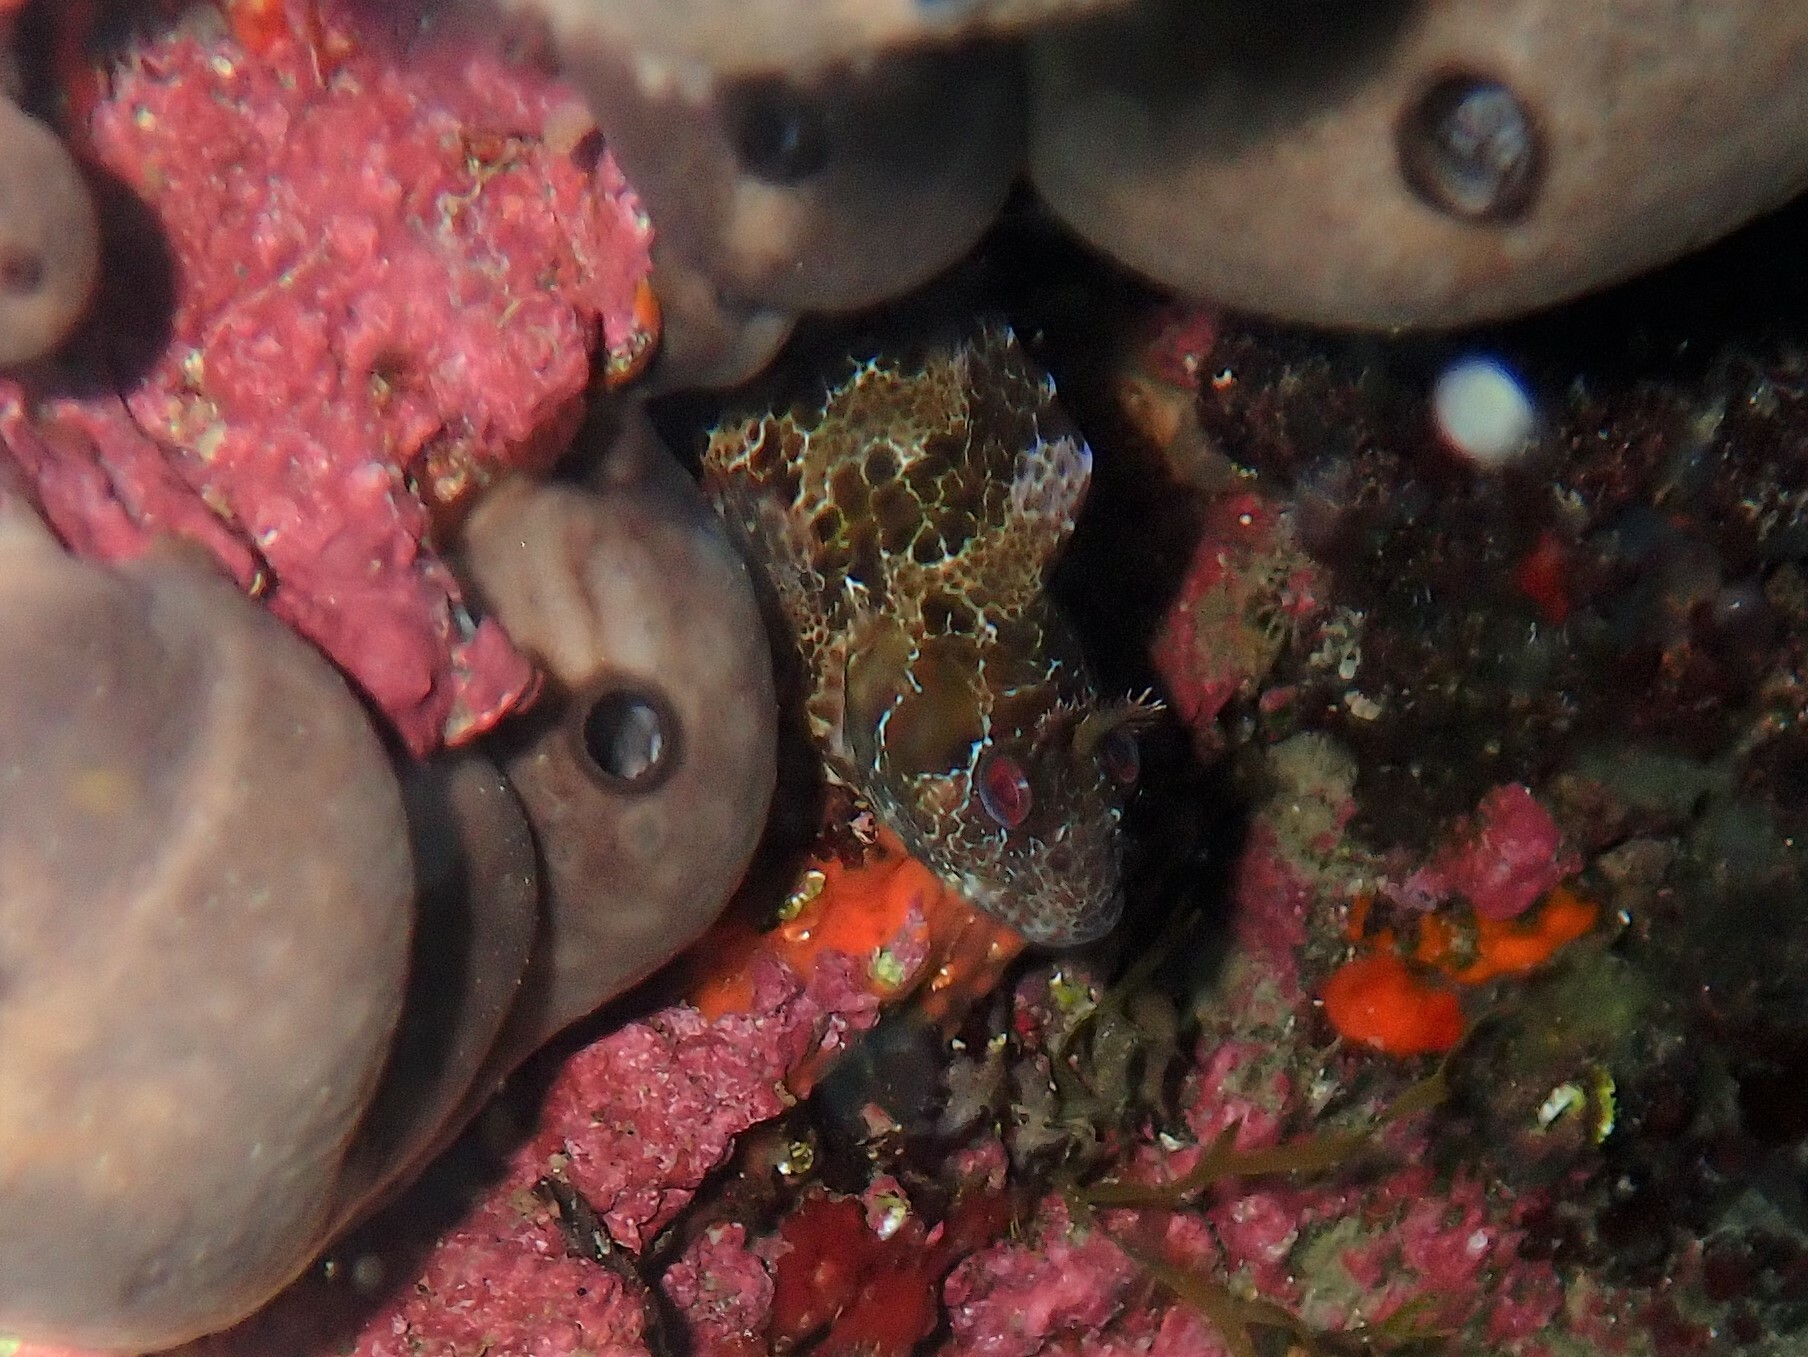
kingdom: Animalia
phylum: Chordata
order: Perciformes
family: Blenniidae
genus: Parablennius
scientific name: Parablennius gattorugine
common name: Tompot blenny
